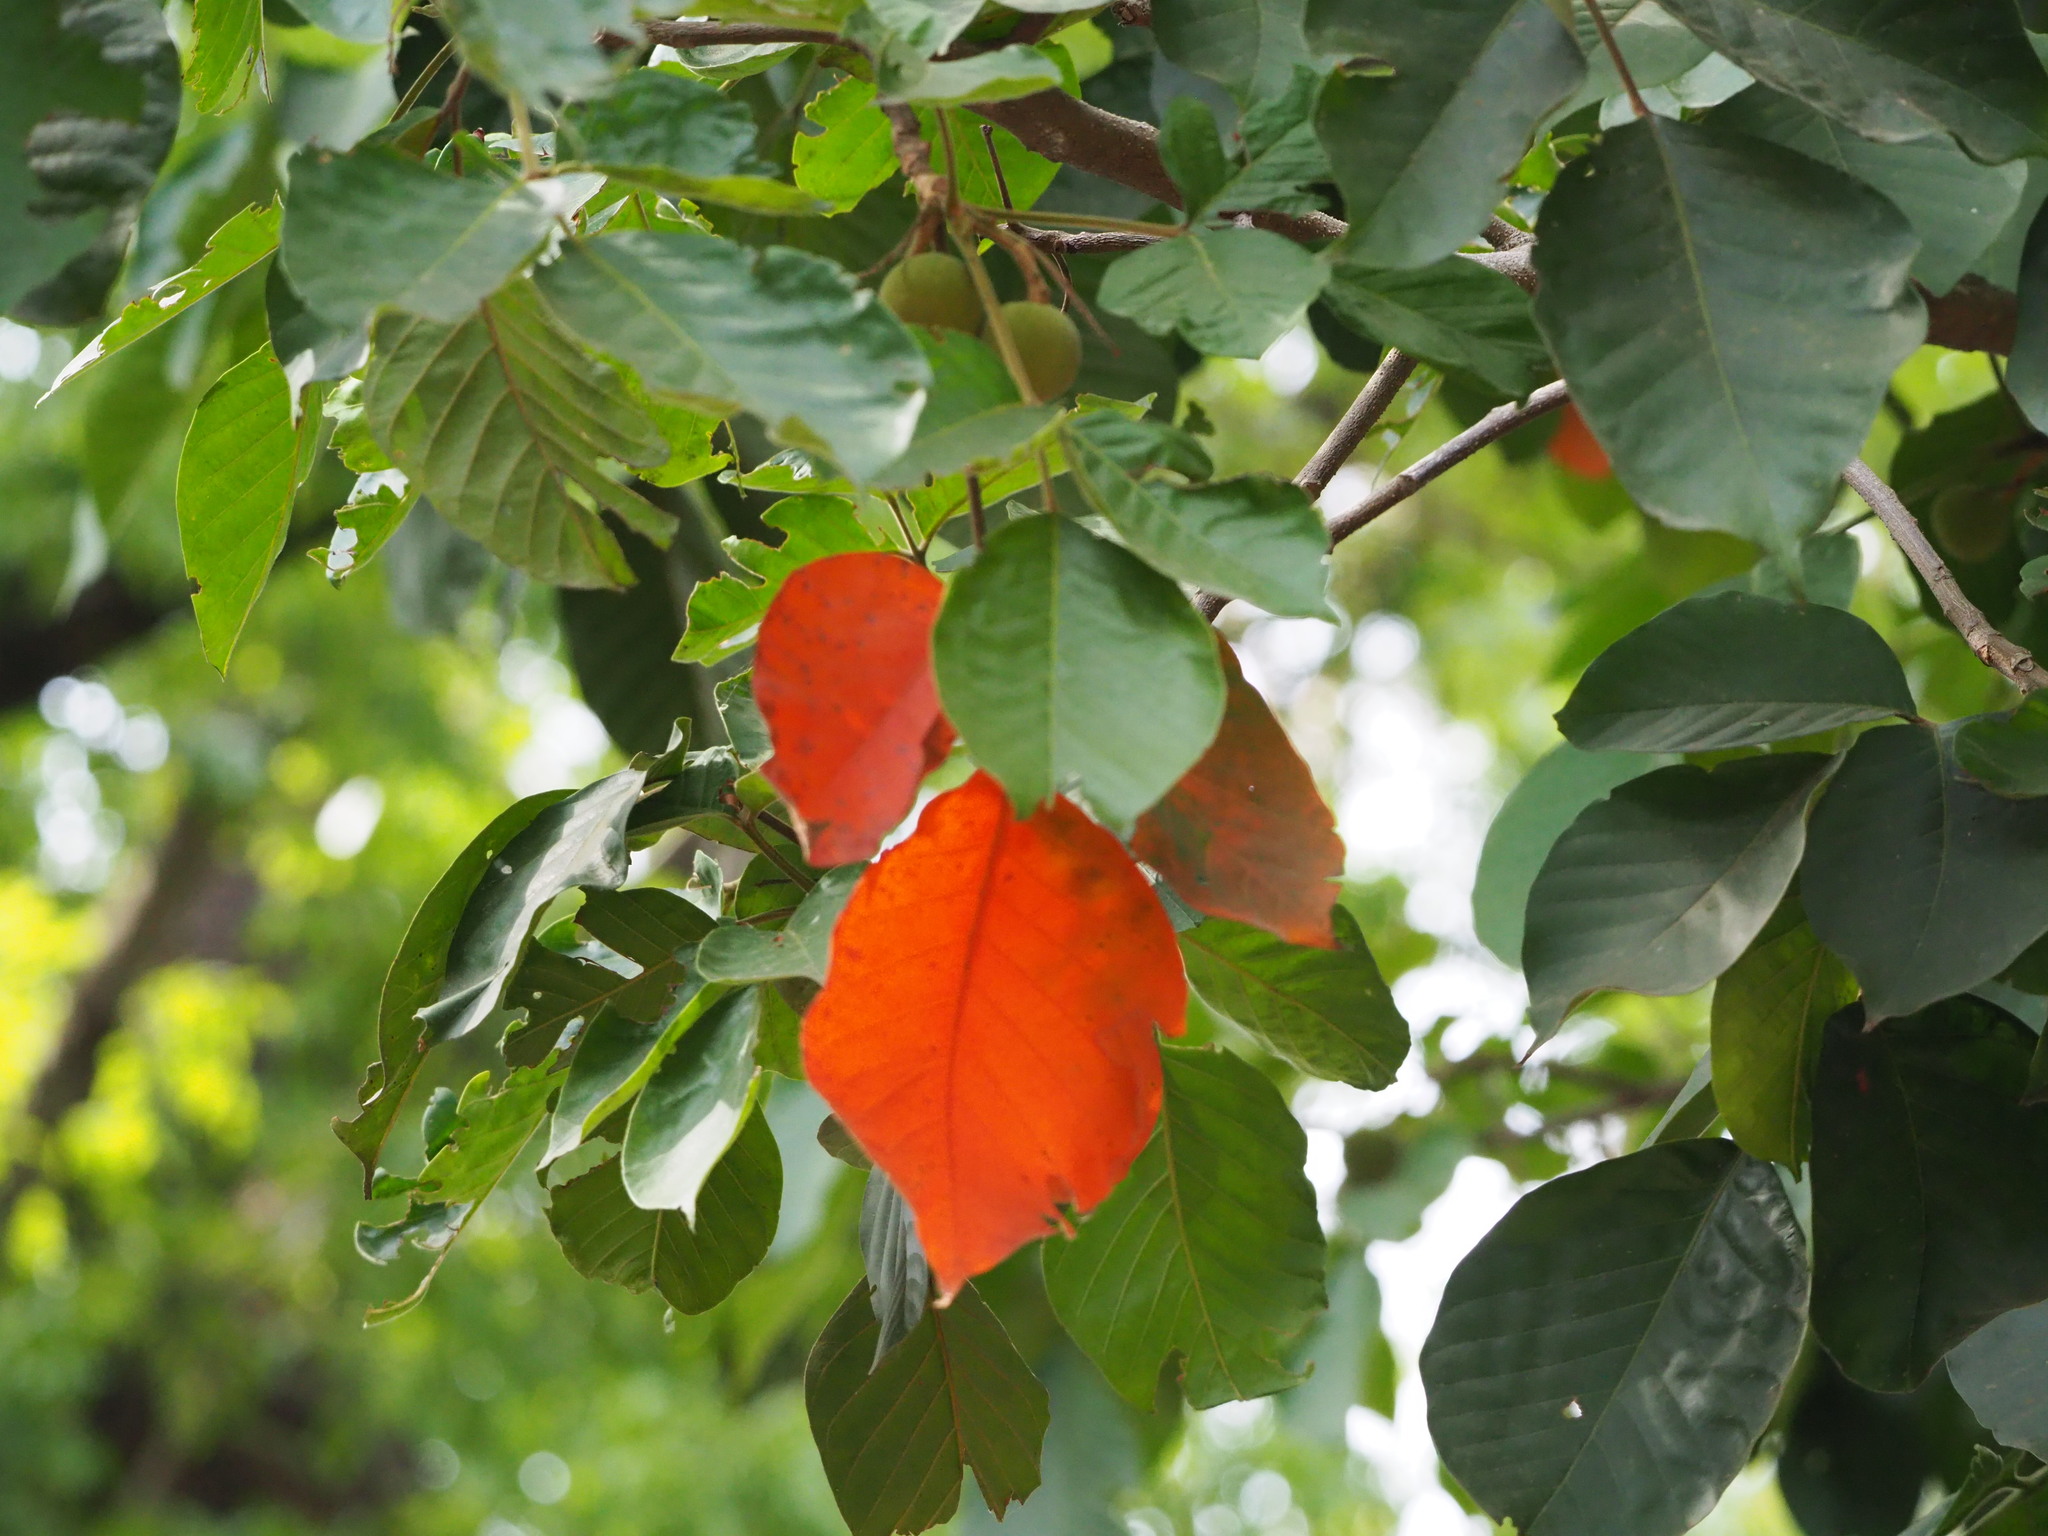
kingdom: Plantae
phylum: Tracheophyta
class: Magnoliopsida
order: Gentianales
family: Rubiaceae
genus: Neolamarckia
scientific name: Neolamarckia cadamba
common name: Leichhardt-pine
